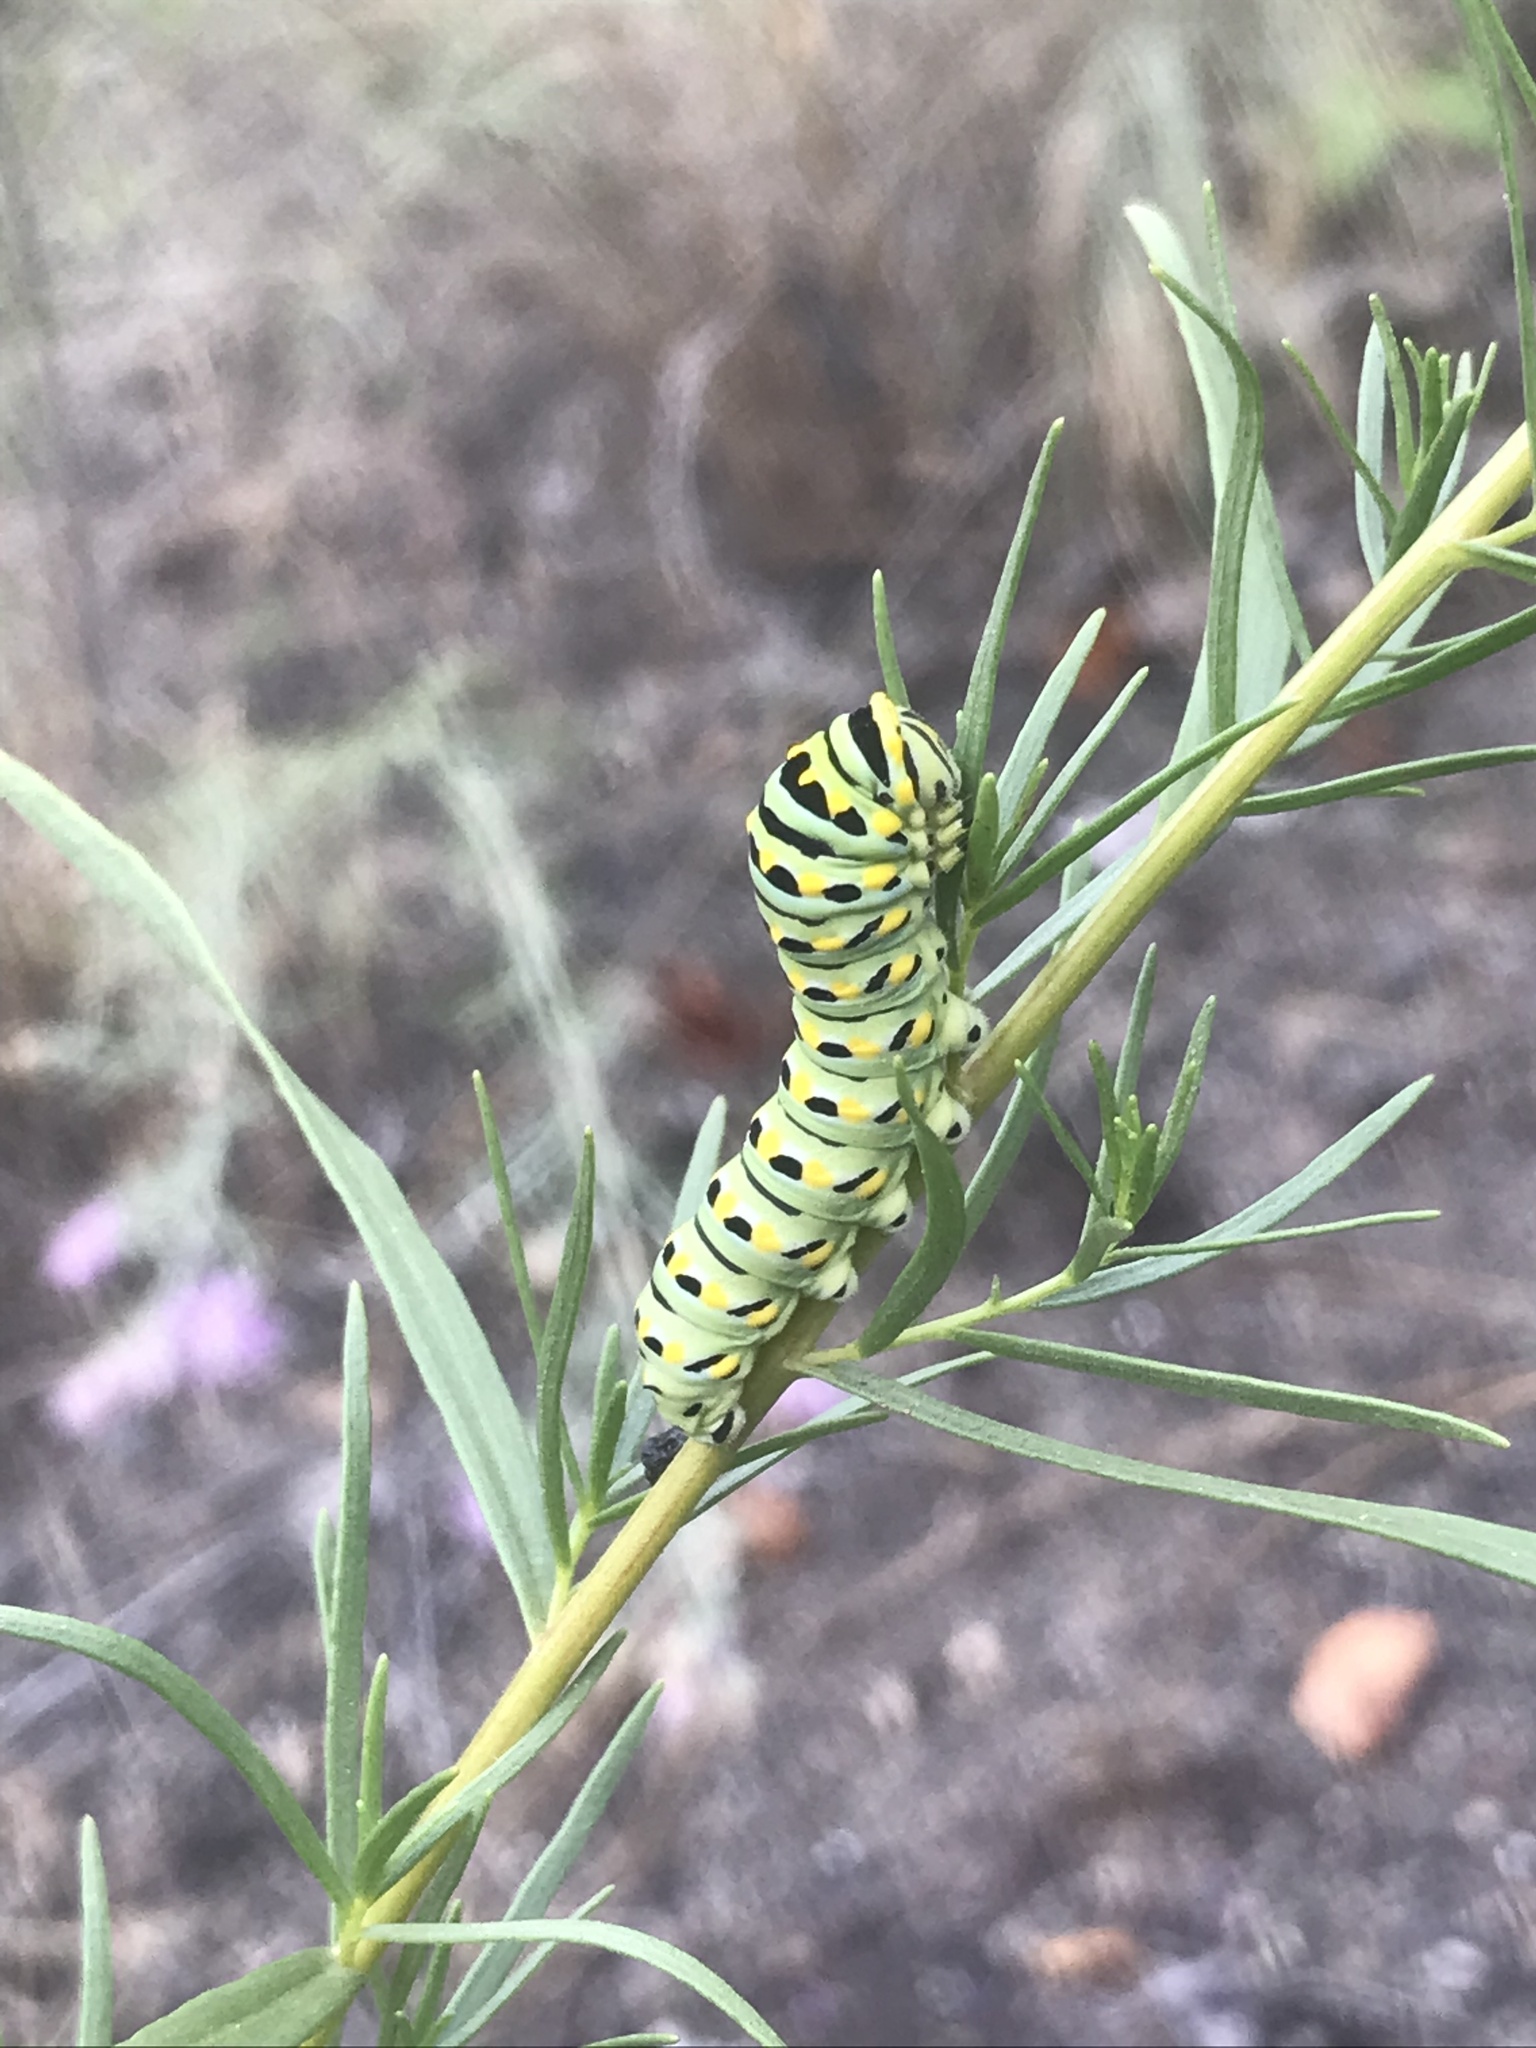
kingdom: Animalia
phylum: Arthropoda
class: Insecta
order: Lepidoptera
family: Papilionidae
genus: Papilio
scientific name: Papilio
